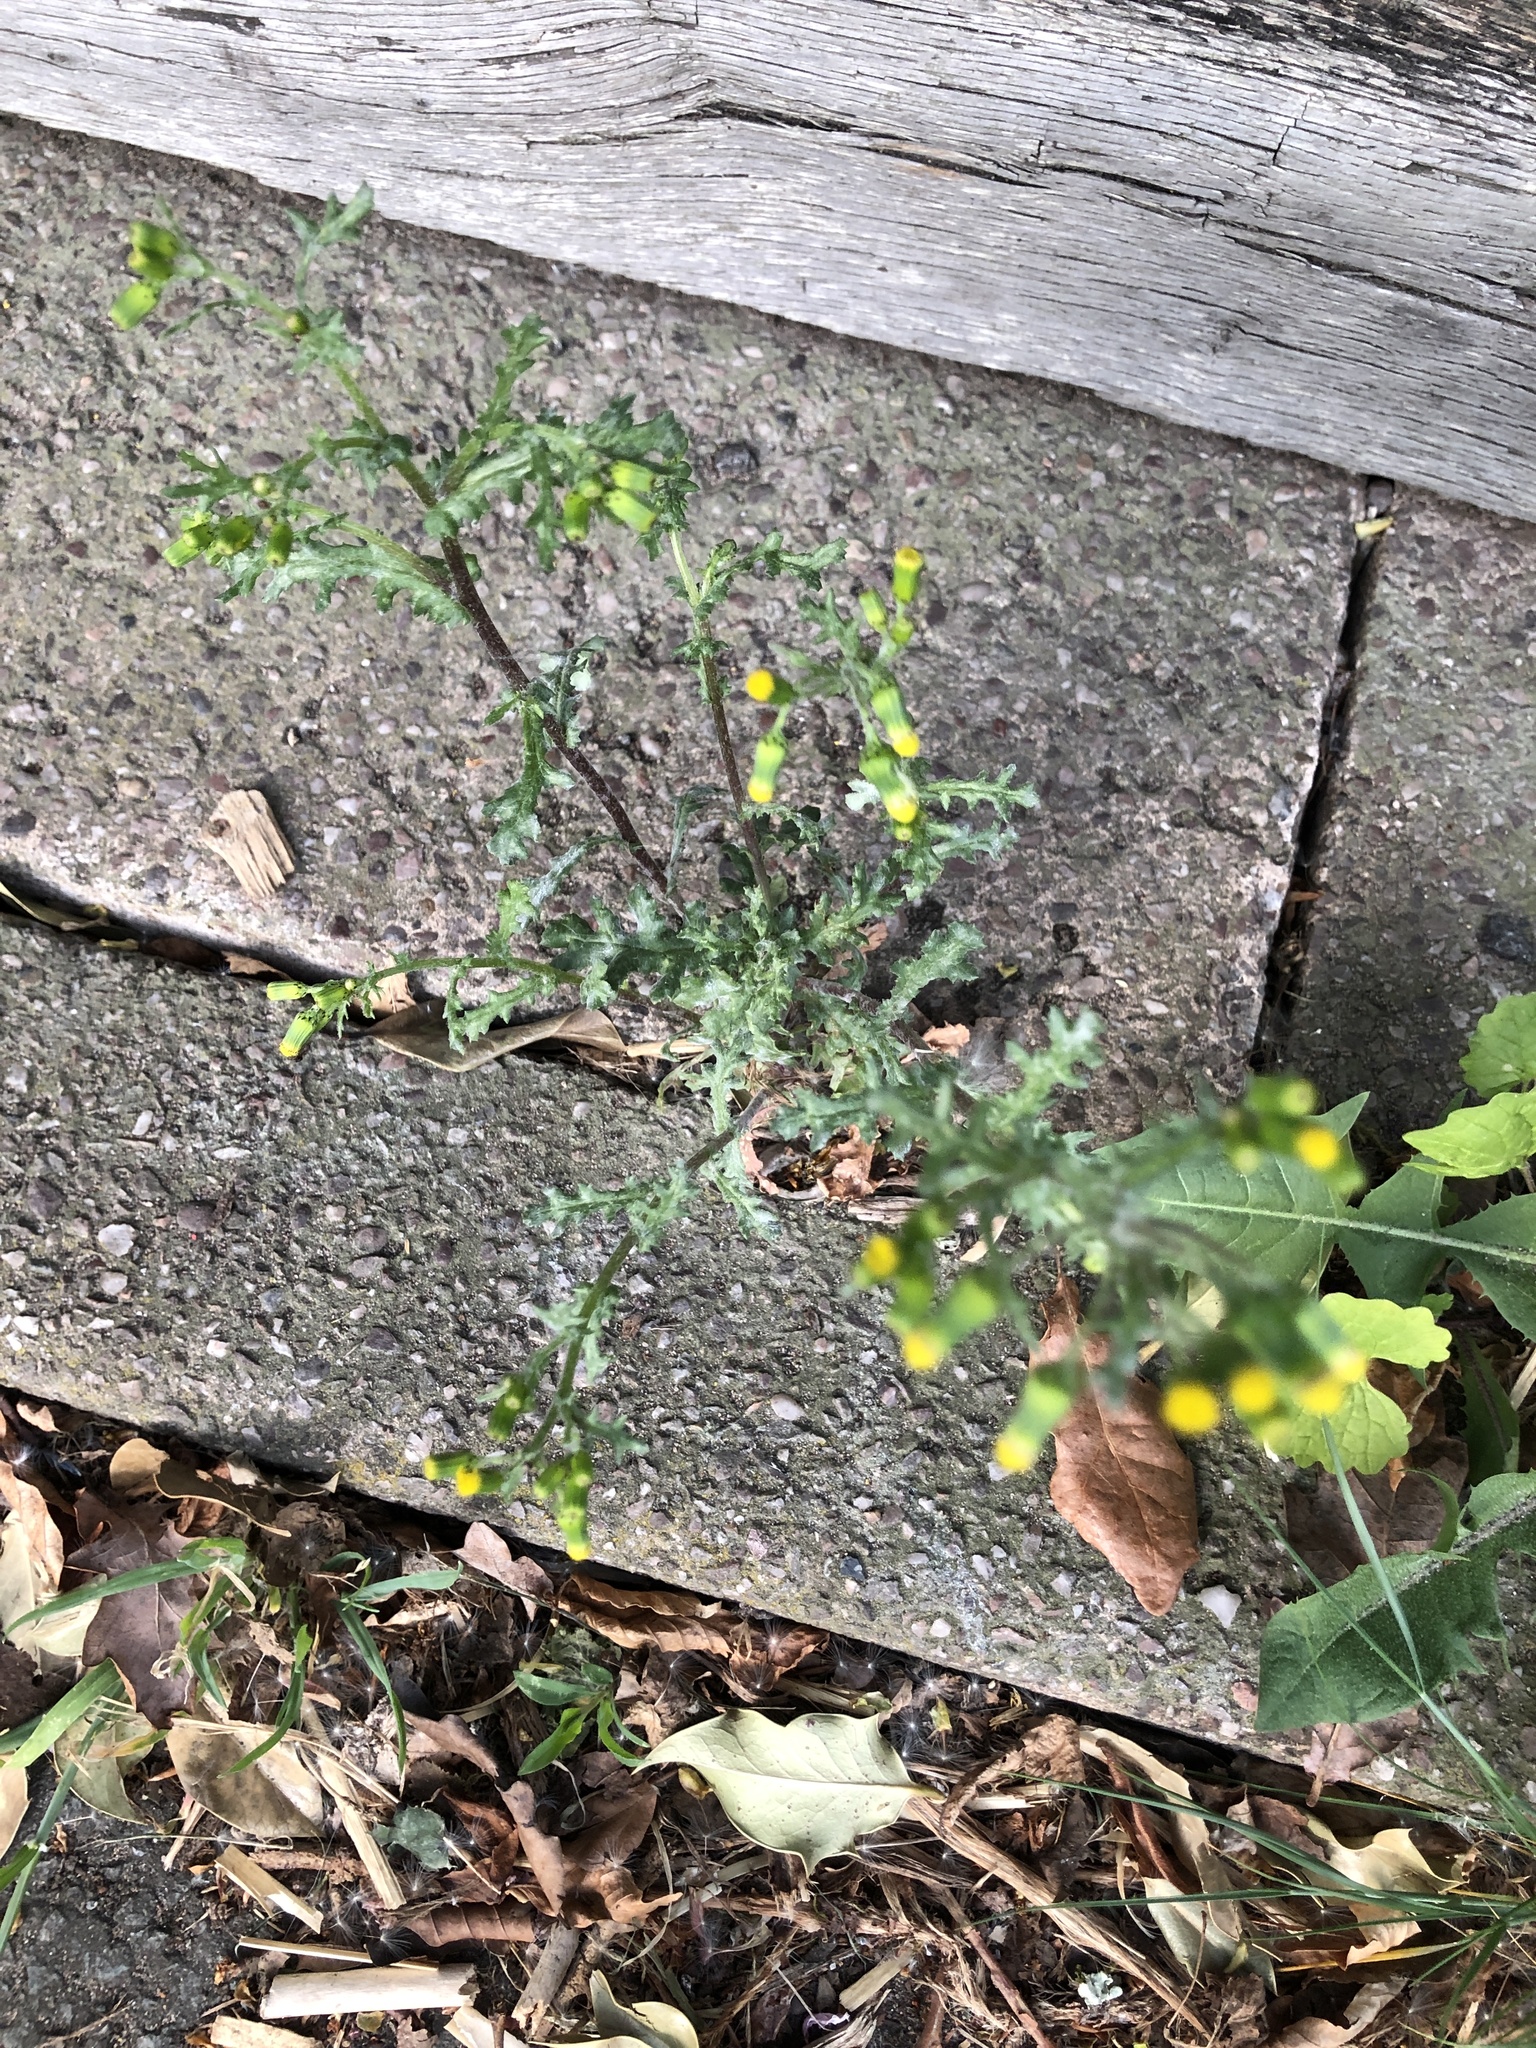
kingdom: Plantae
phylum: Tracheophyta
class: Magnoliopsida
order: Asterales
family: Asteraceae
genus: Senecio
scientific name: Senecio vulgaris
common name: Old-man-in-the-spring
